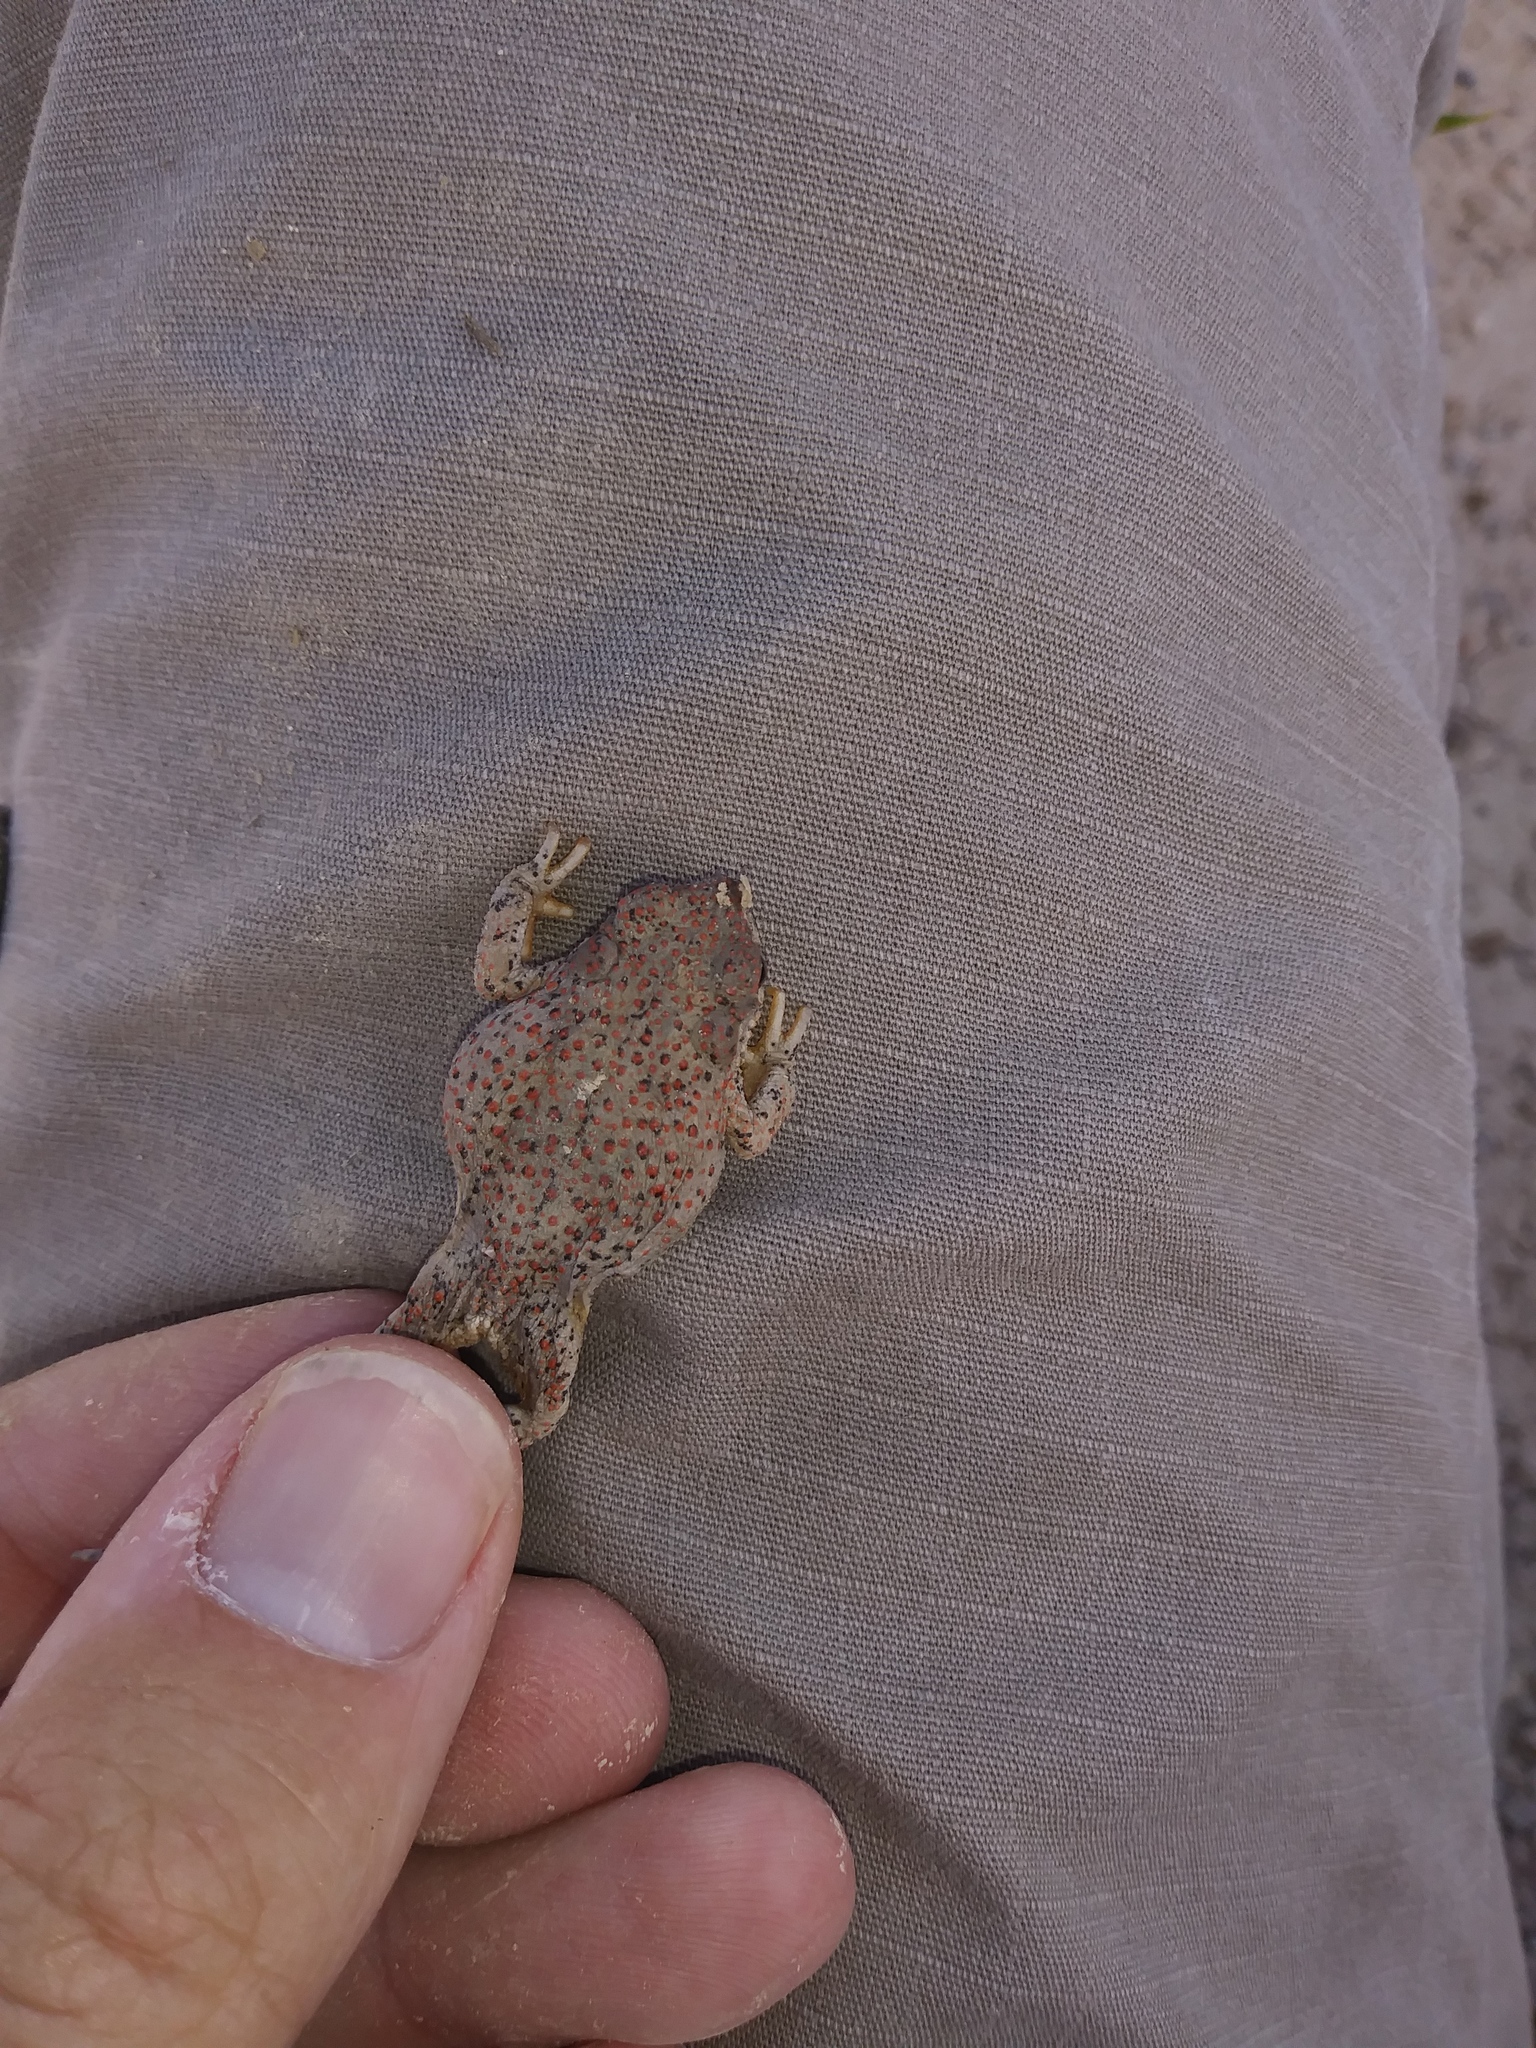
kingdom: Animalia
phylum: Chordata
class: Amphibia
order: Anura
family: Bufonidae
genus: Anaxyrus
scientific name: Anaxyrus punctatus
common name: Red-spotted toad
